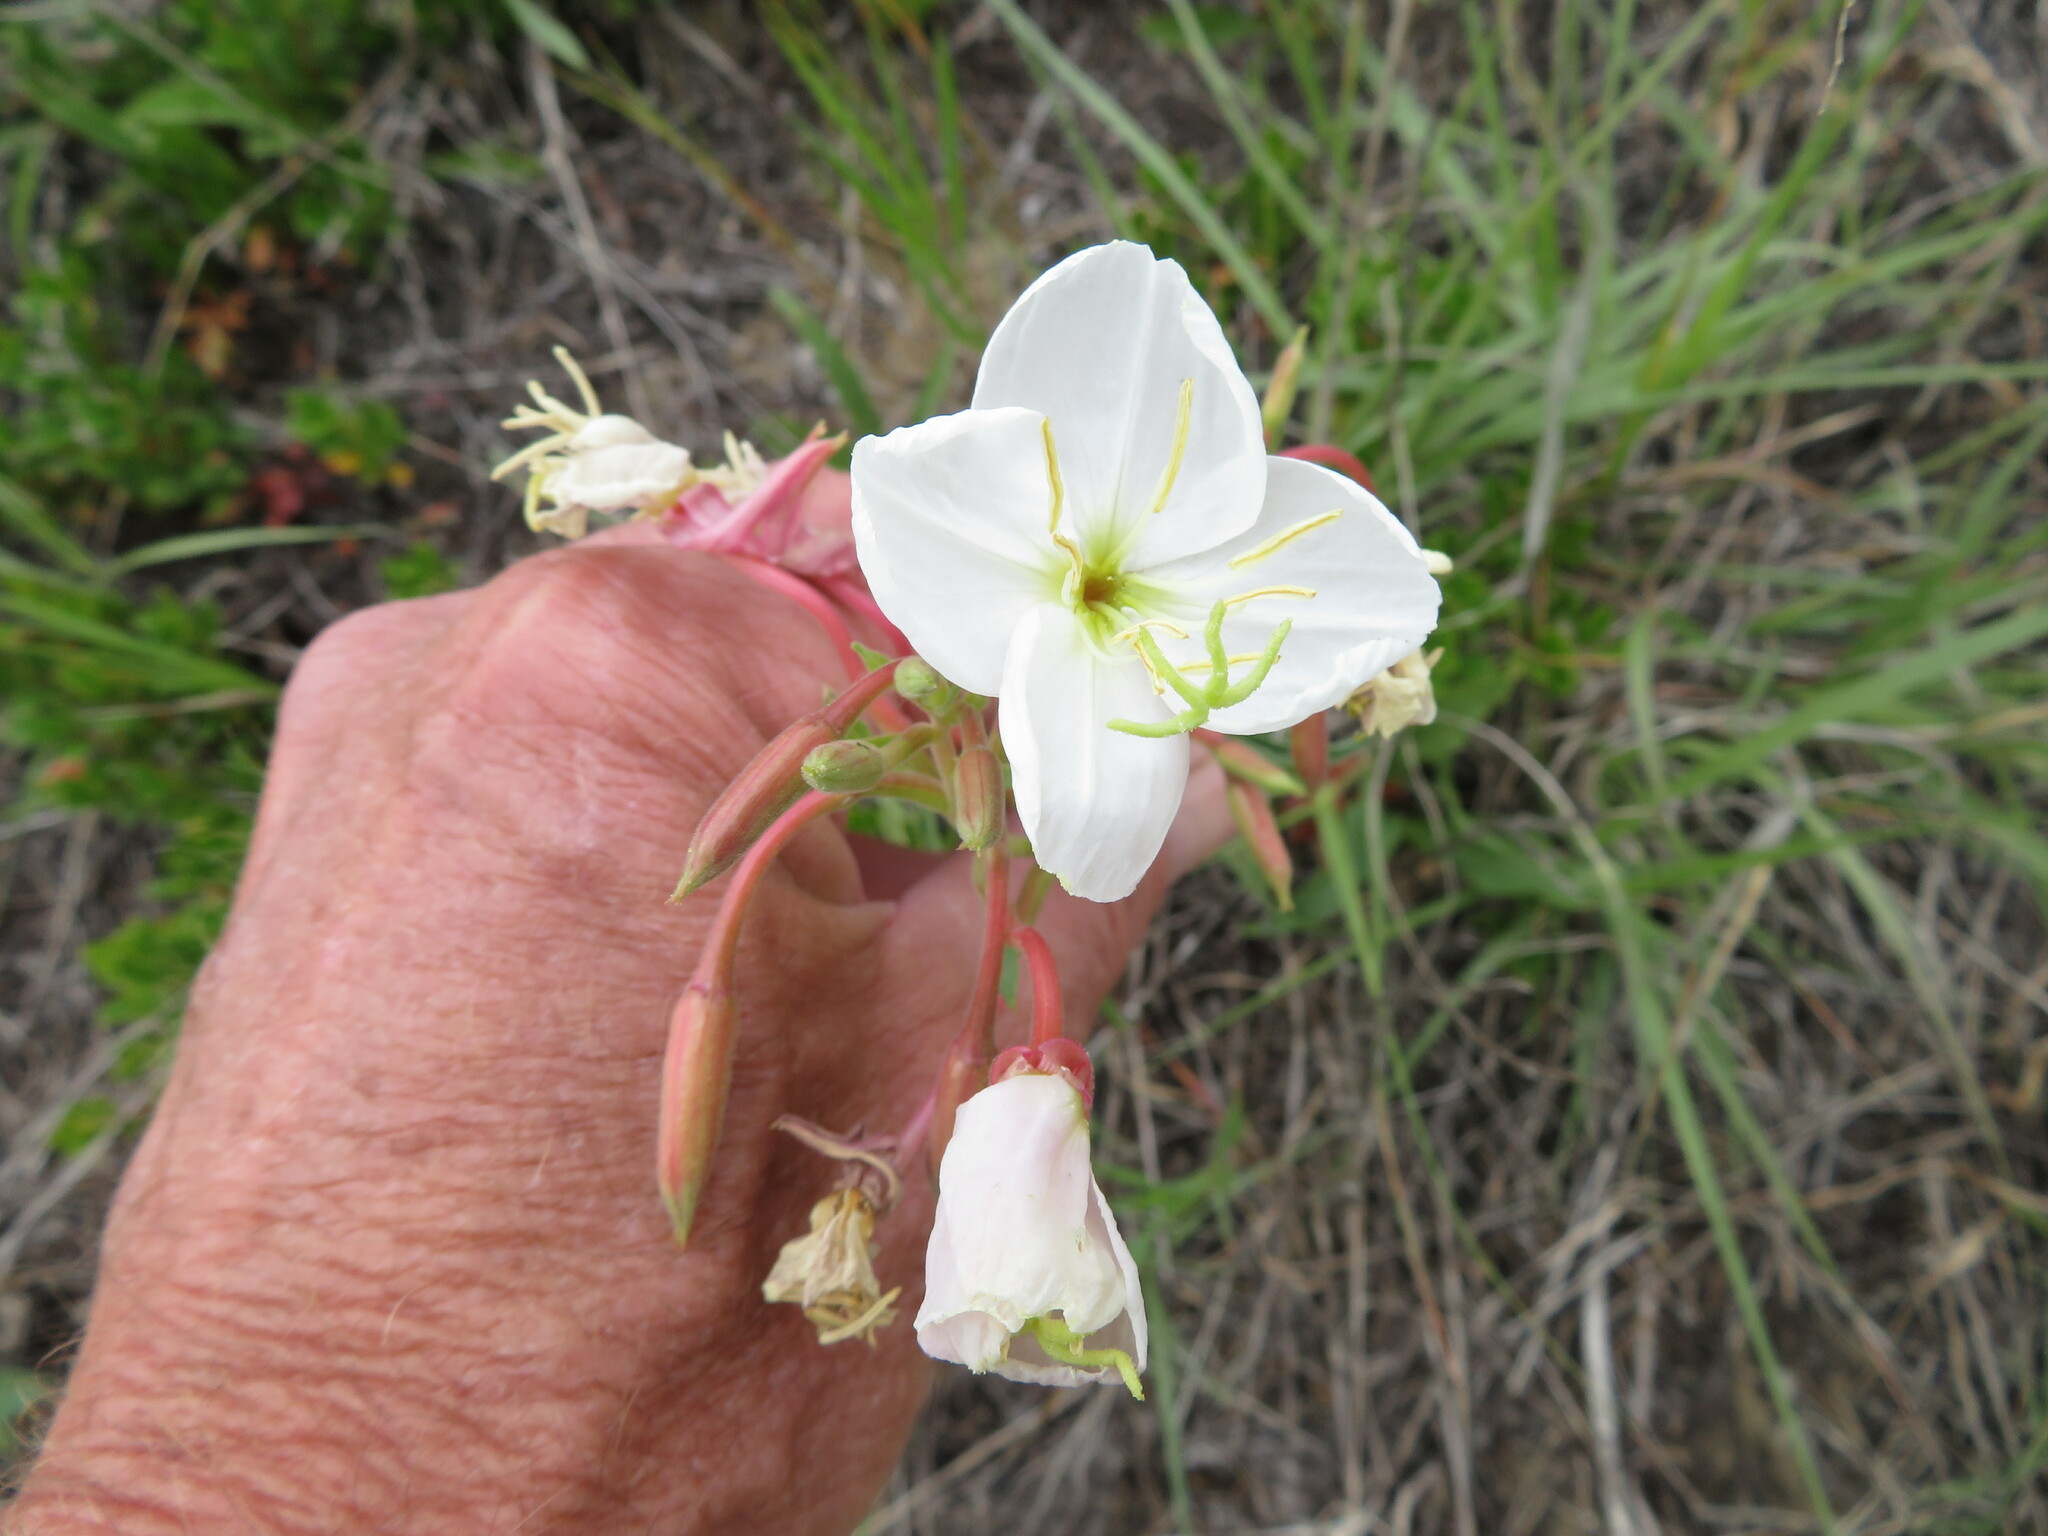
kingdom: Plantae
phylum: Tracheophyta
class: Magnoliopsida
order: Myrtales
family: Onagraceae
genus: Oenothera
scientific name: Oenothera nuttallii
